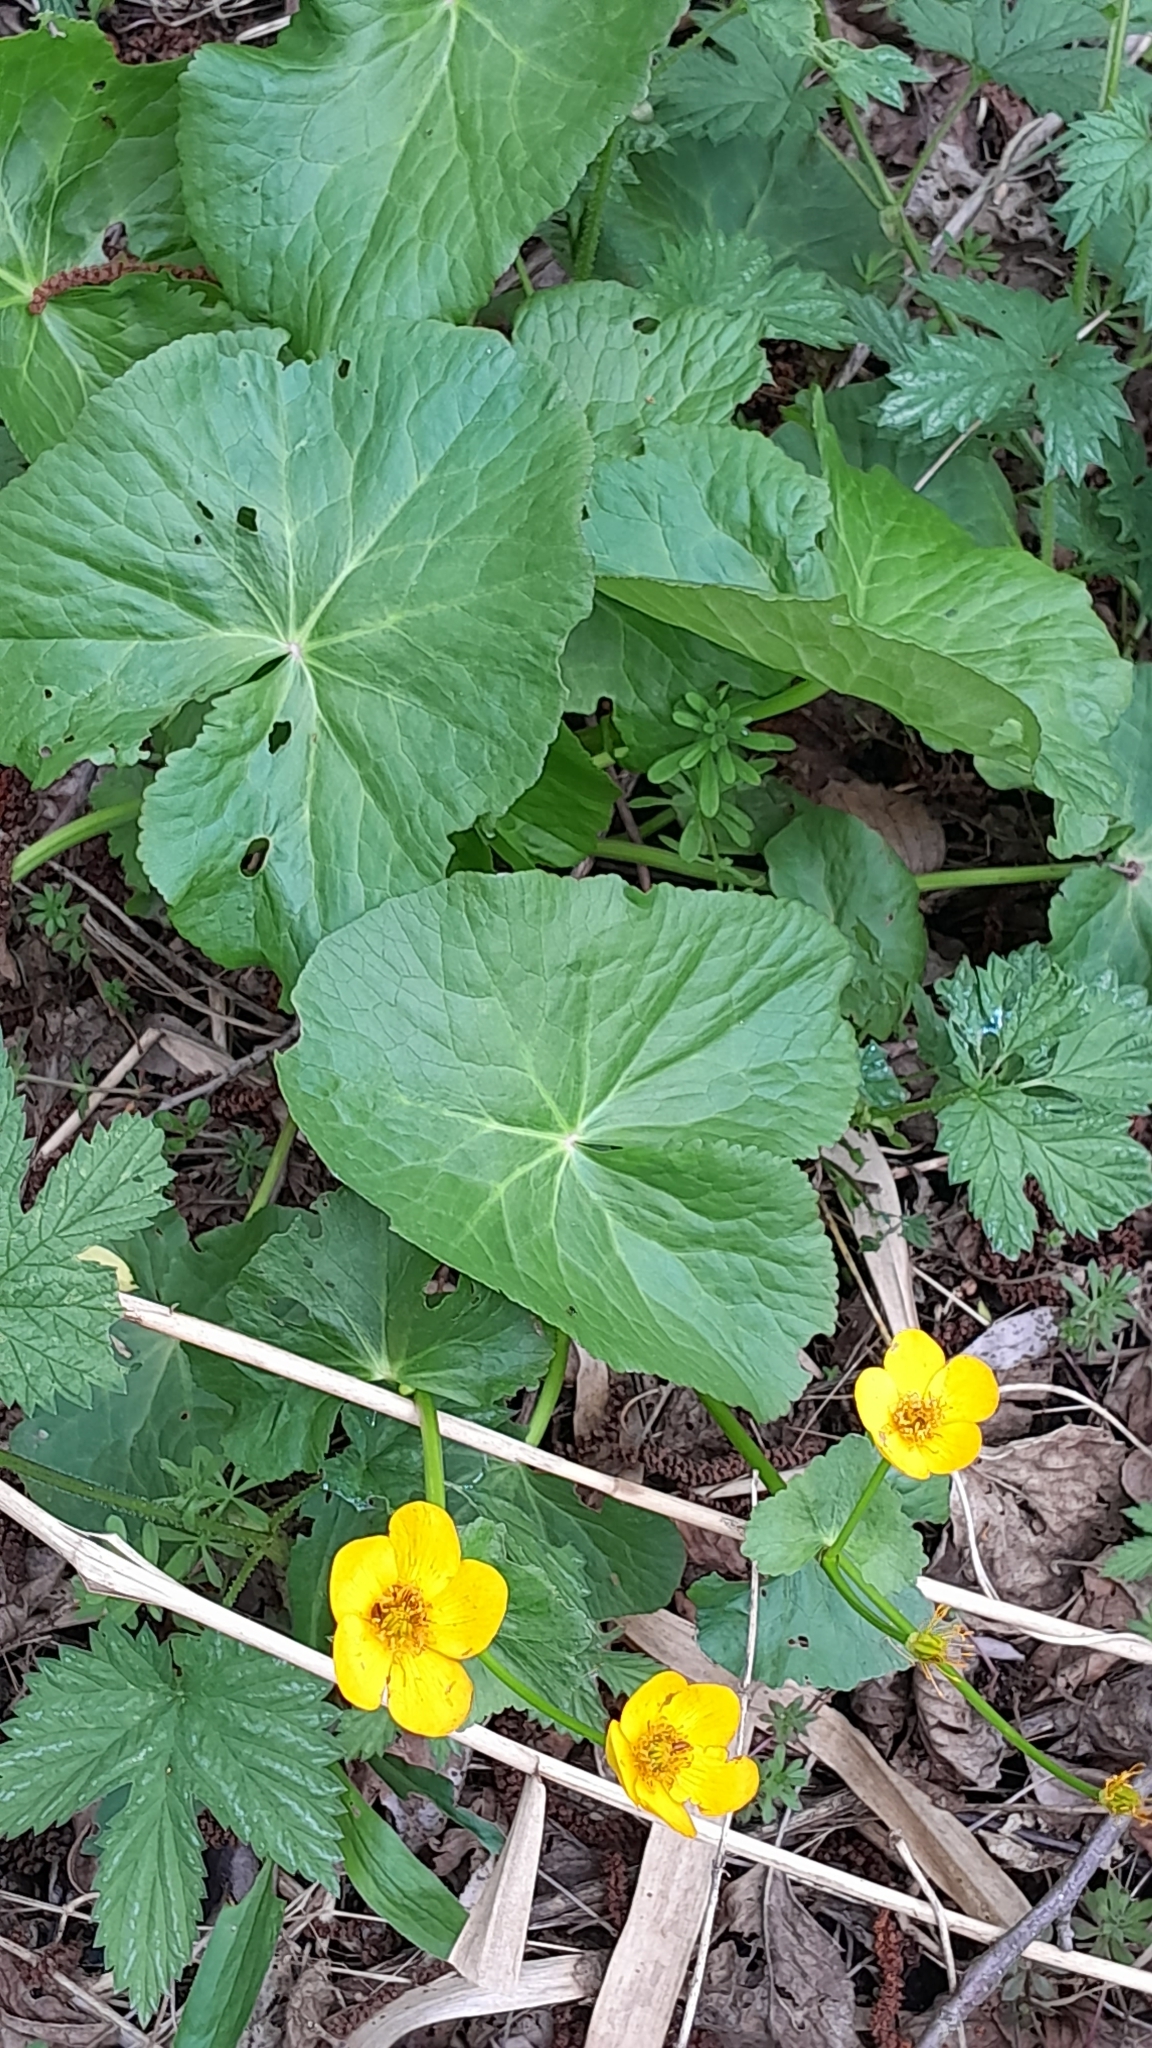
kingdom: Plantae
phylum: Tracheophyta
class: Magnoliopsida
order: Ranunculales
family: Ranunculaceae
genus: Caltha
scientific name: Caltha palustris
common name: Marsh marigold
